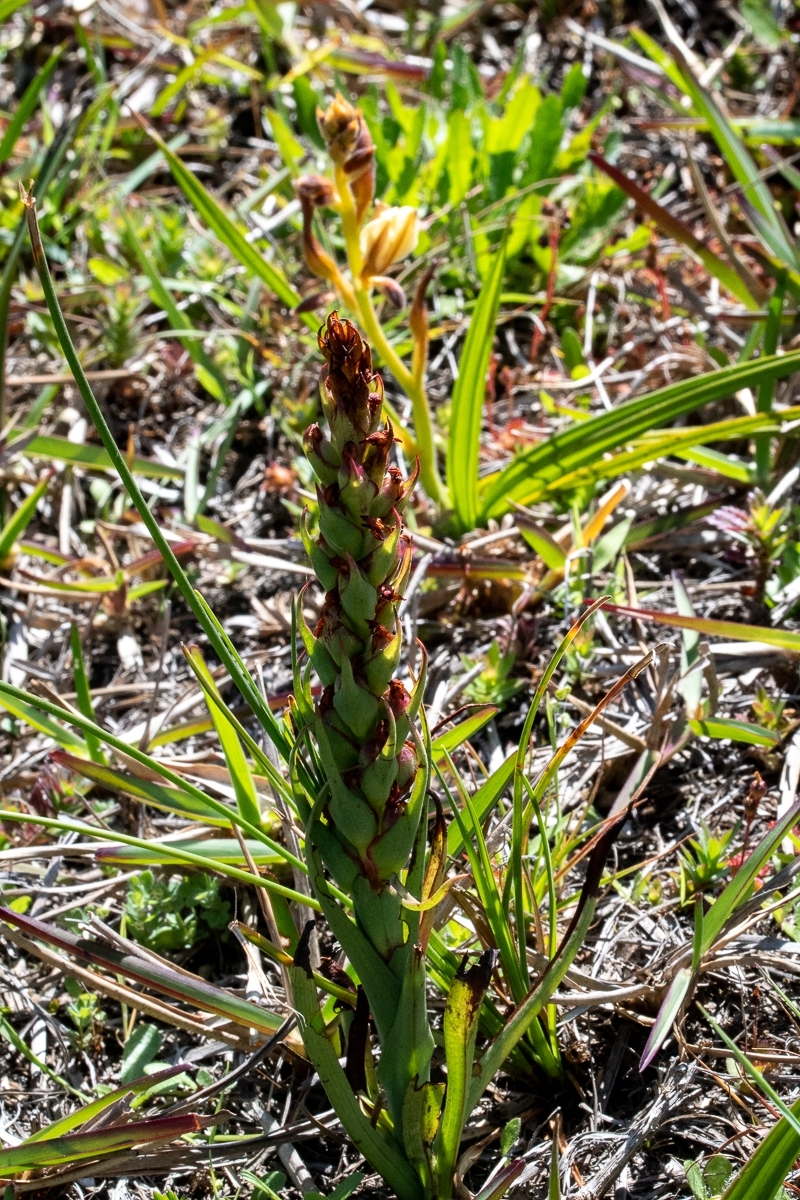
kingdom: Plantae
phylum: Tracheophyta
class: Liliopsida
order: Asparagales
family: Orchidaceae
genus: Disa
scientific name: Disa bracteata
